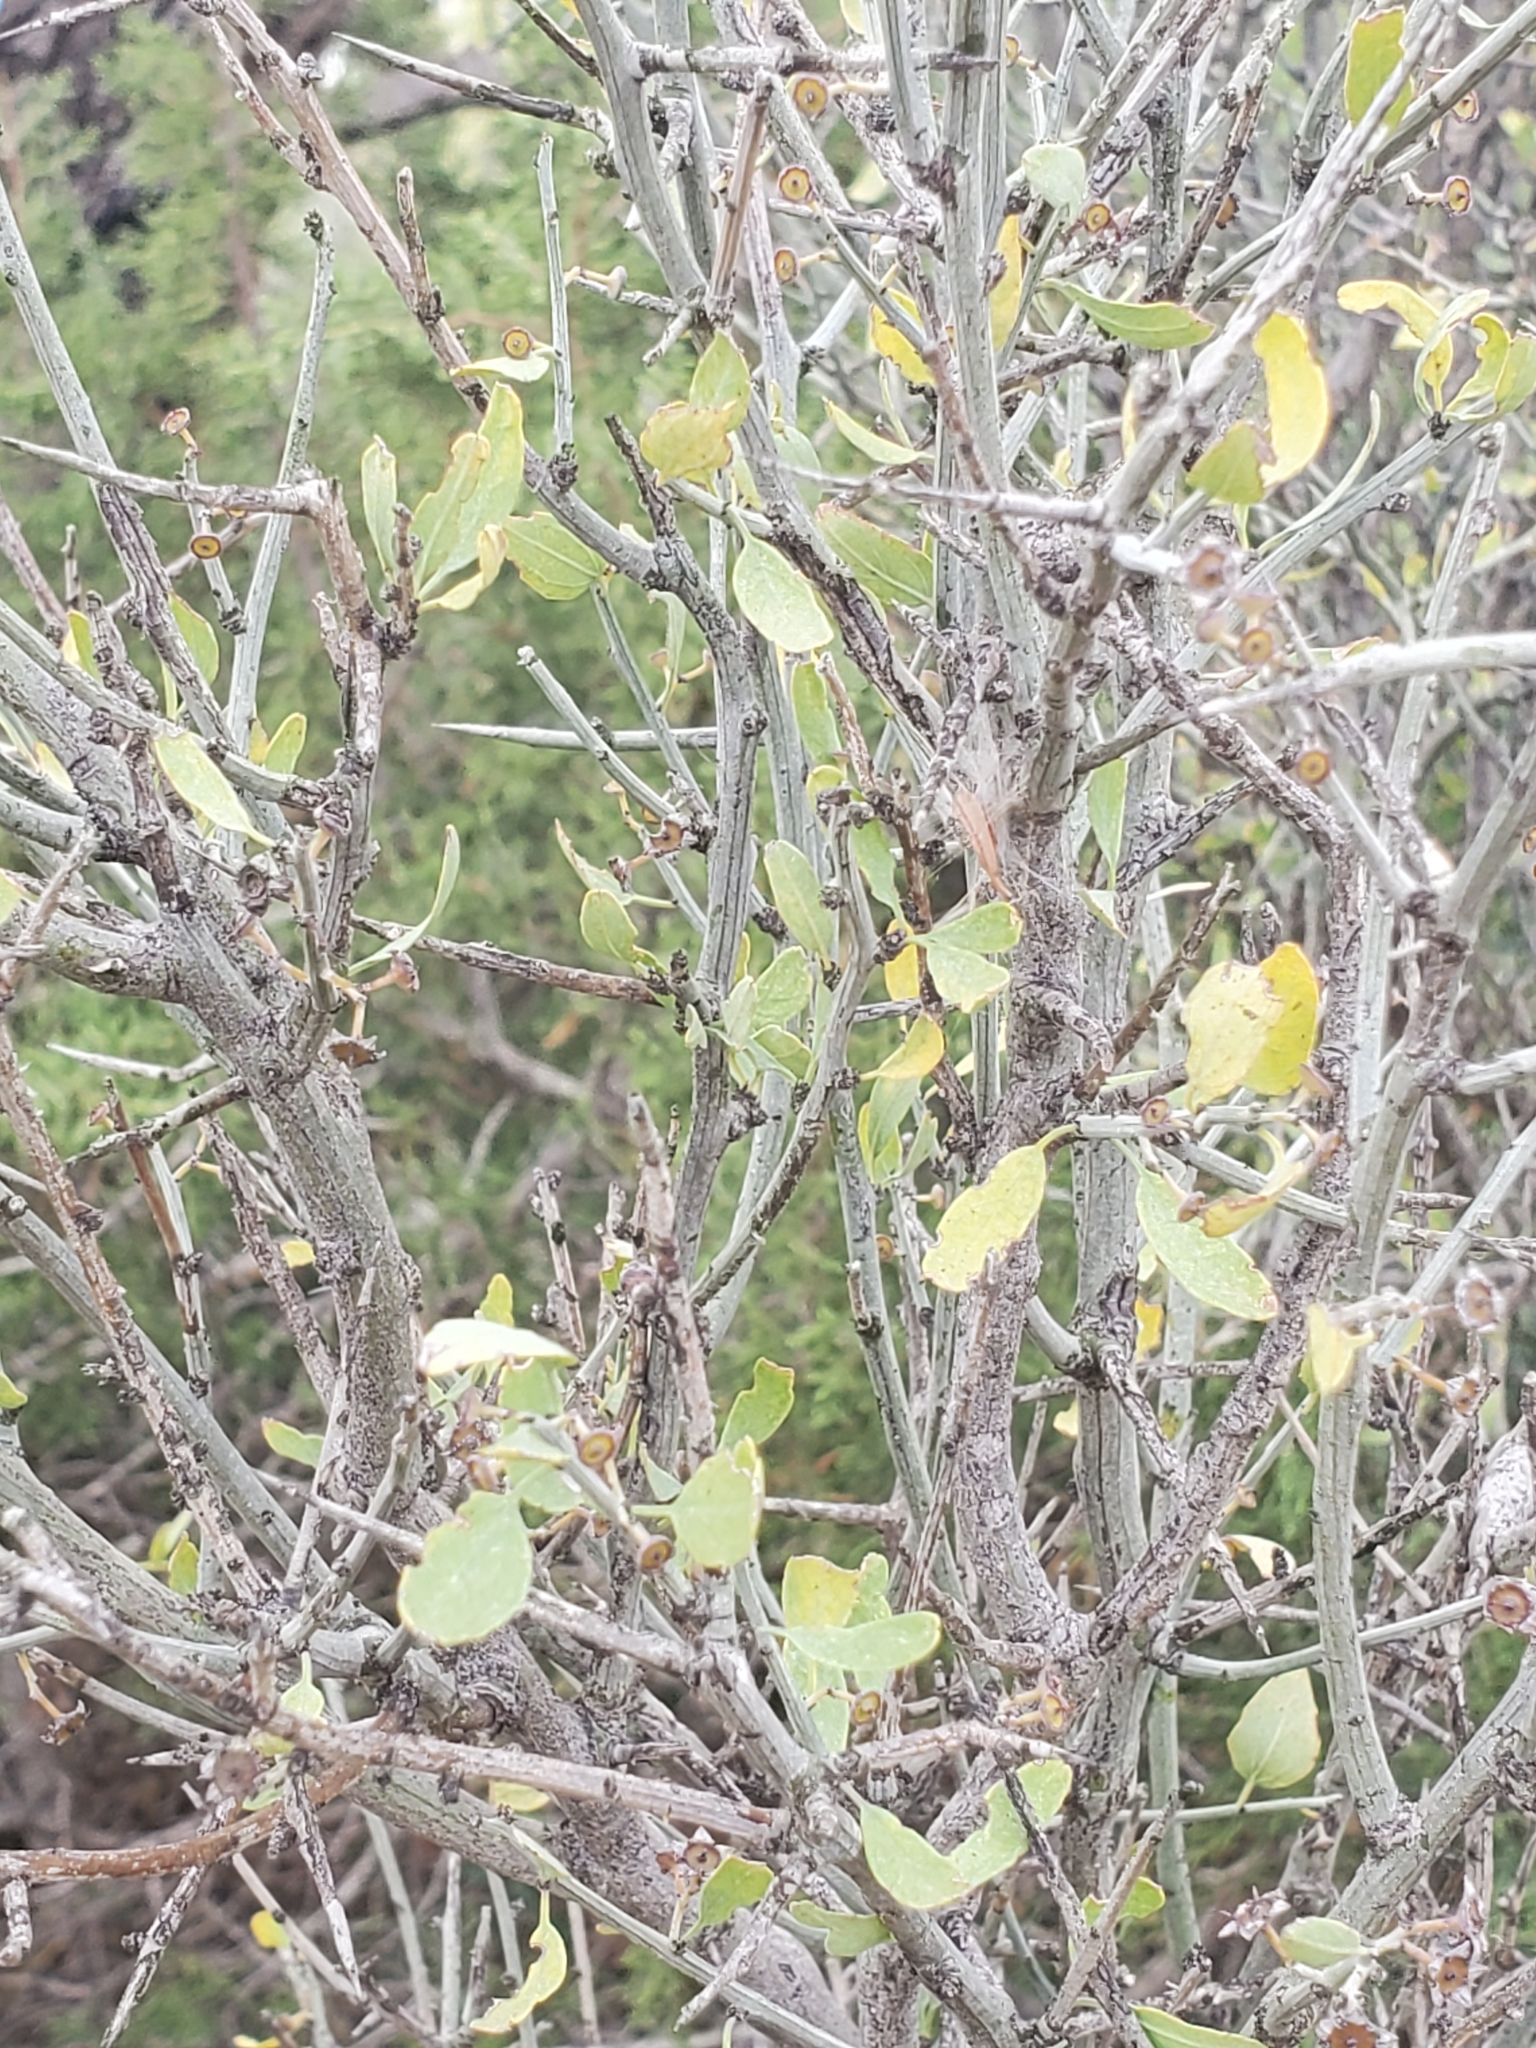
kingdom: Plantae
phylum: Tracheophyta
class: Magnoliopsida
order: Rosales
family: Rhamnaceae
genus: Sarcomphalus
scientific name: Sarcomphalus obtusifolius
